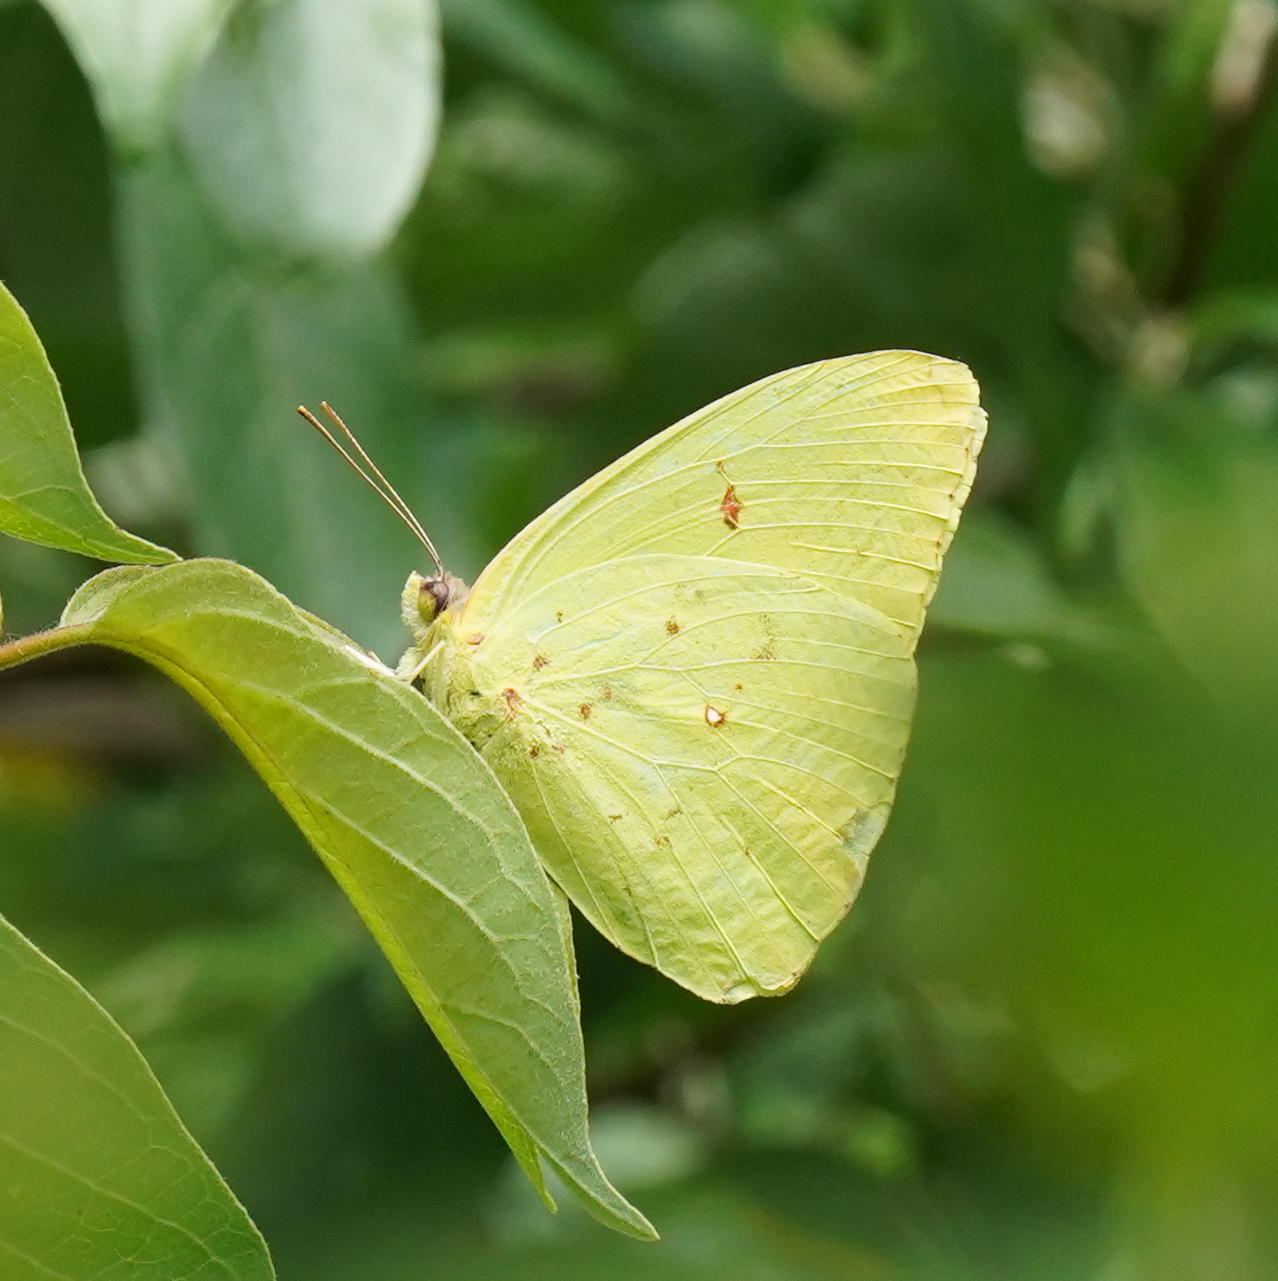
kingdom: Animalia
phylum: Arthropoda
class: Insecta
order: Lepidoptera
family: Pieridae
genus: Phoebis
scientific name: Phoebis sennae
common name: Cloudless sulphur
